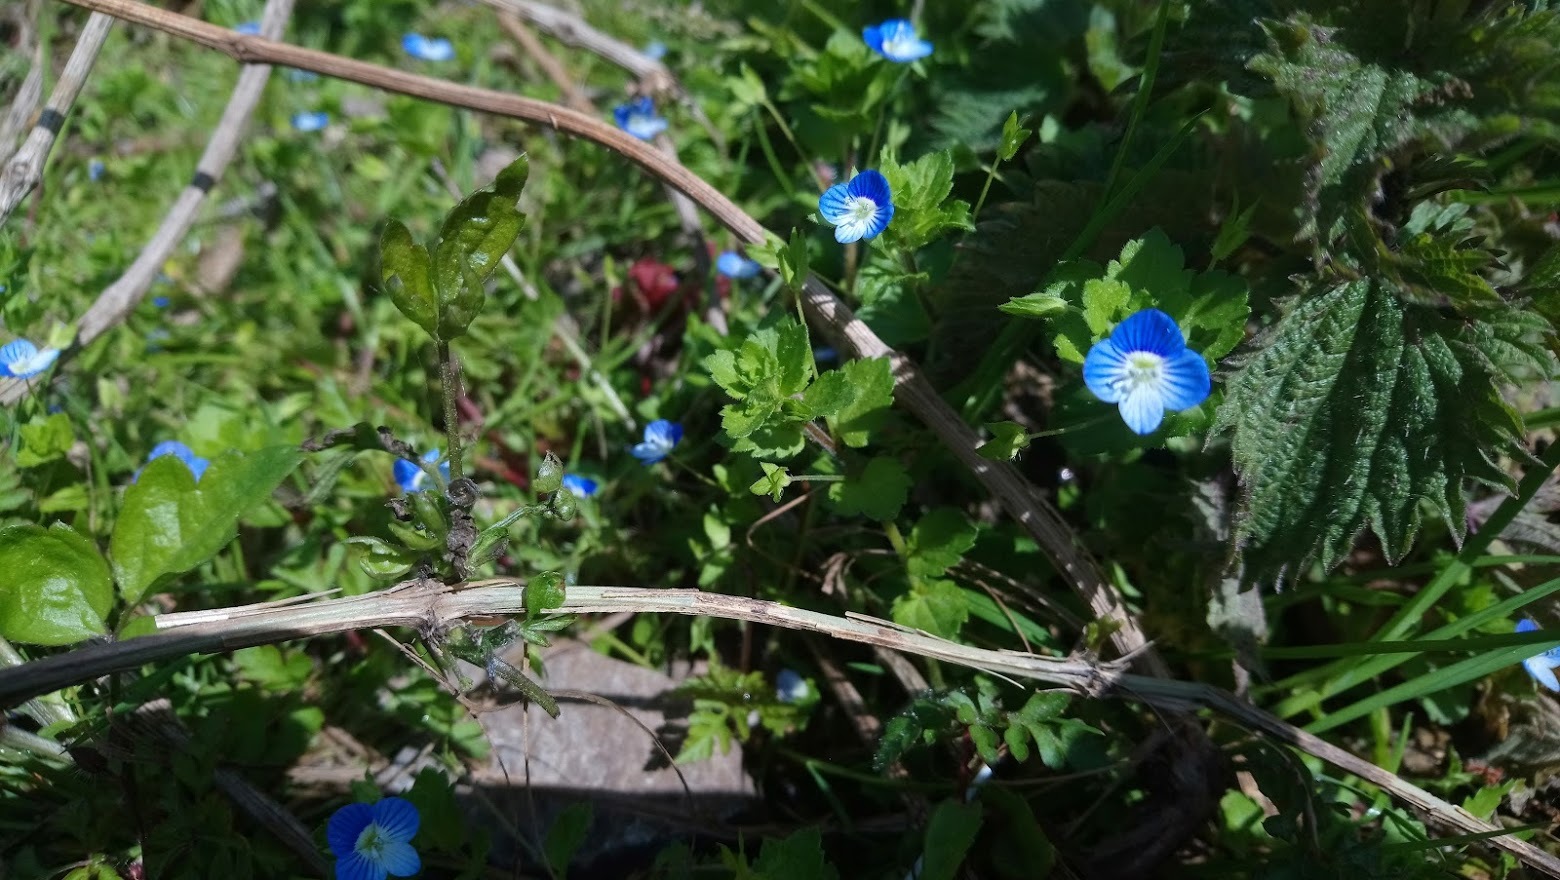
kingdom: Plantae
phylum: Tracheophyta
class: Magnoliopsida
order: Lamiales
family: Plantaginaceae
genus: Veronica
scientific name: Veronica persica
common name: Common field-speedwell
